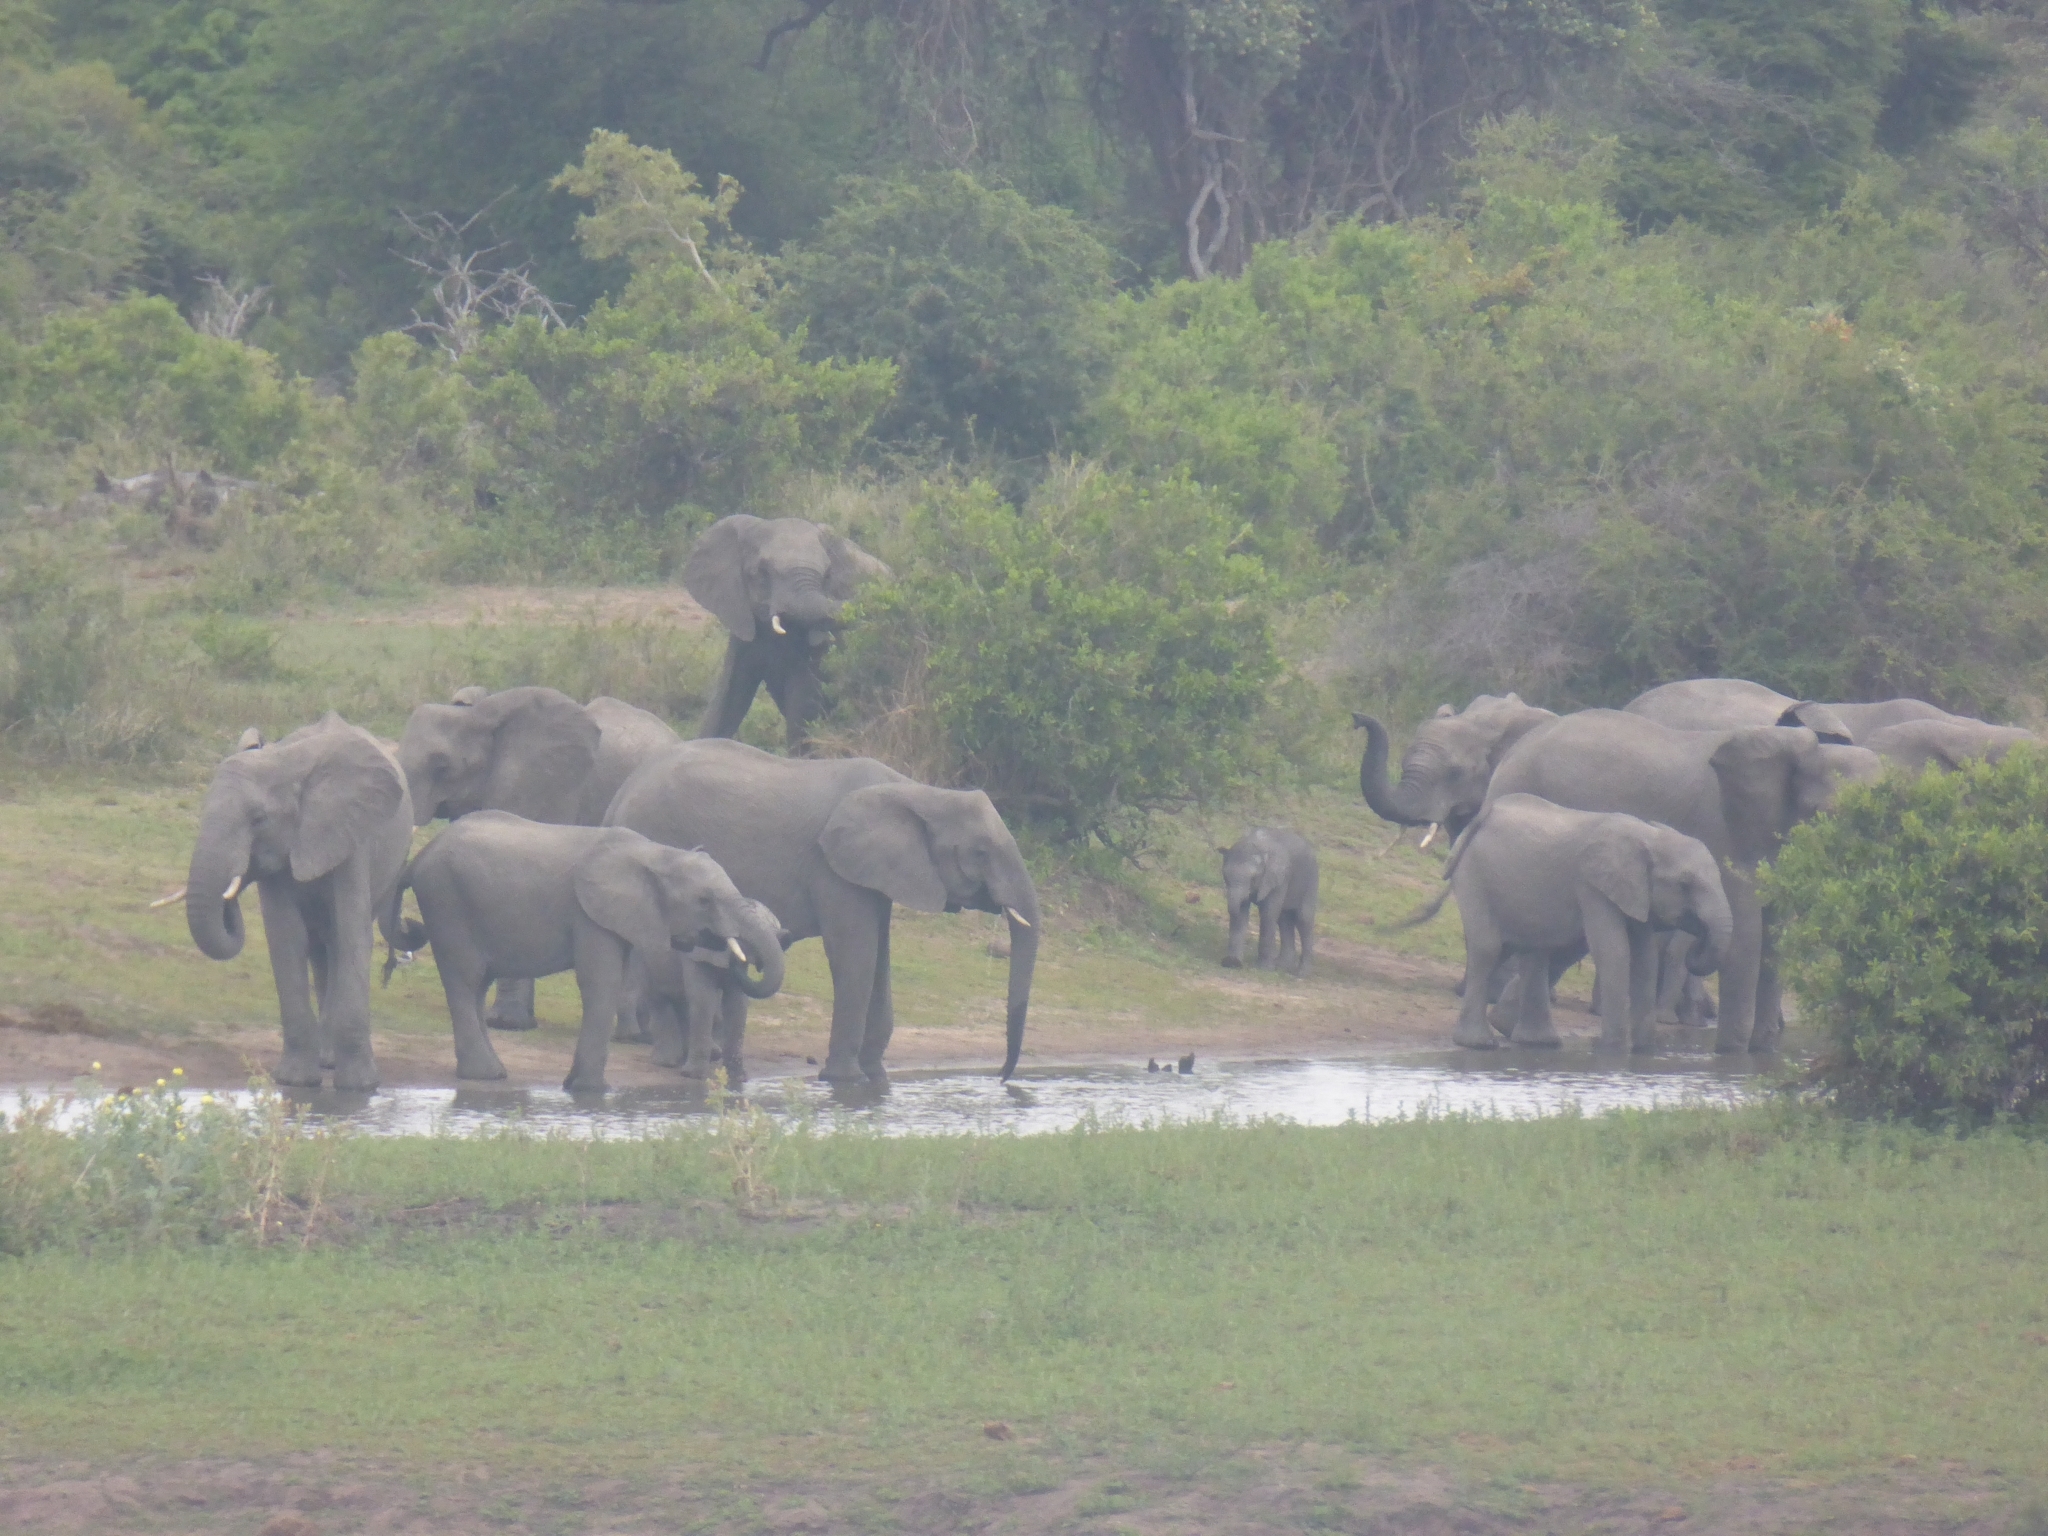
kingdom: Animalia
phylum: Chordata
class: Mammalia
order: Proboscidea
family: Elephantidae
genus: Loxodonta
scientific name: Loxodonta africana
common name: African elephant
